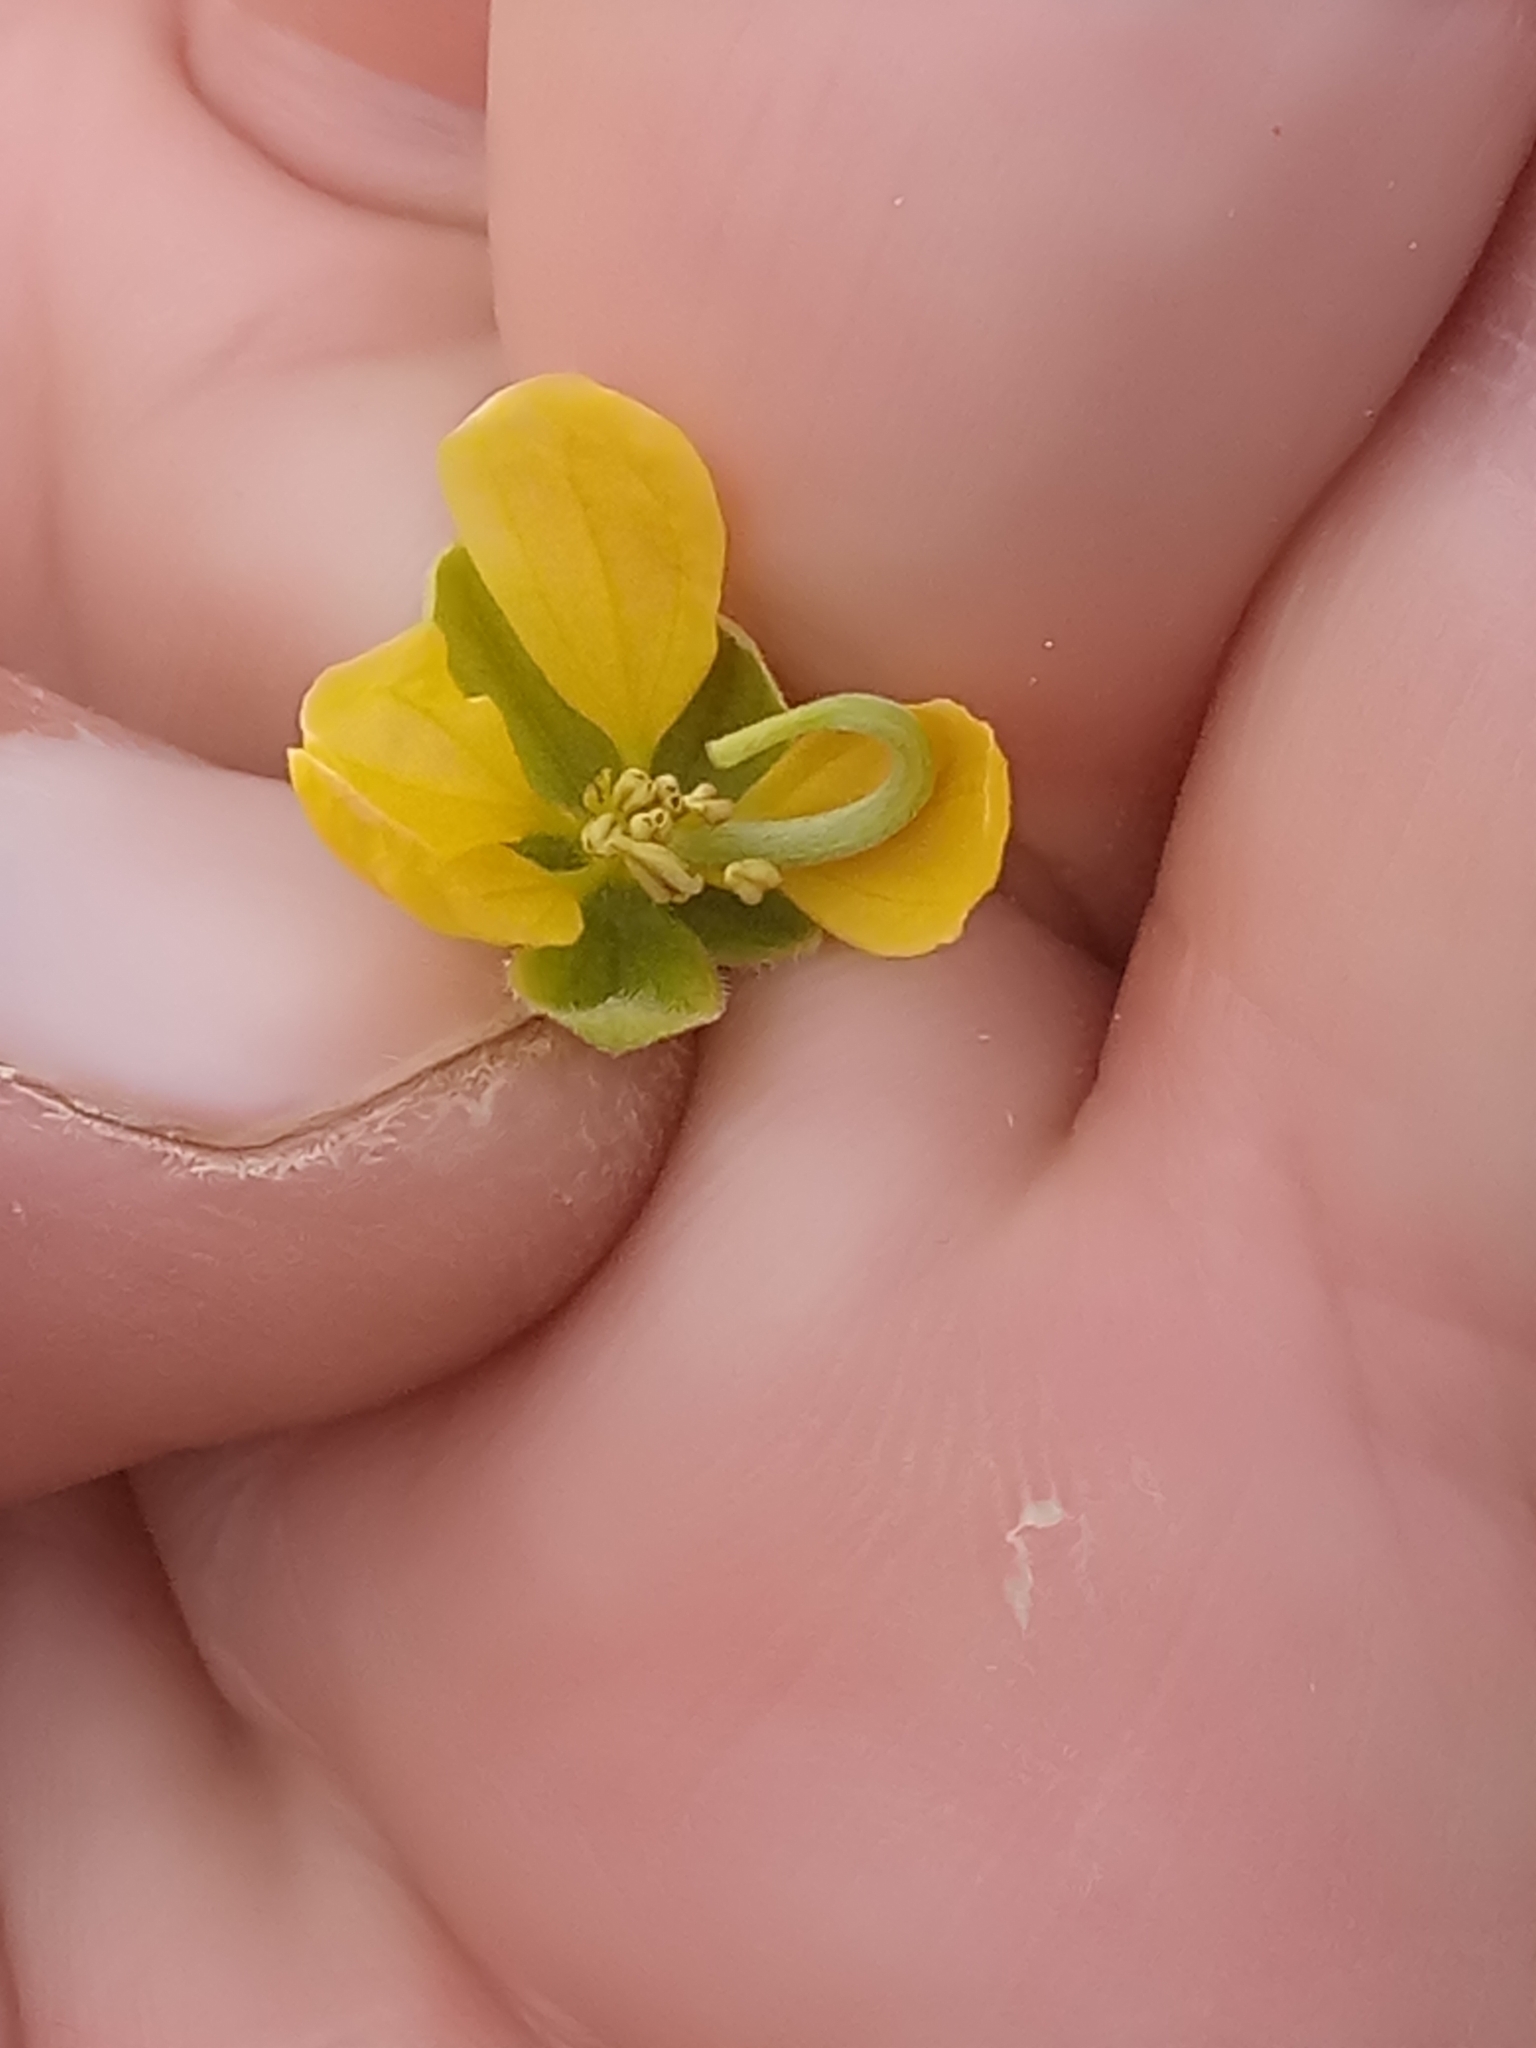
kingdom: Plantae
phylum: Tracheophyta
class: Magnoliopsida
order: Fabales
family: Fabaceae
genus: Senna
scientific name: Senna obtusifolia
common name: Java-bean
